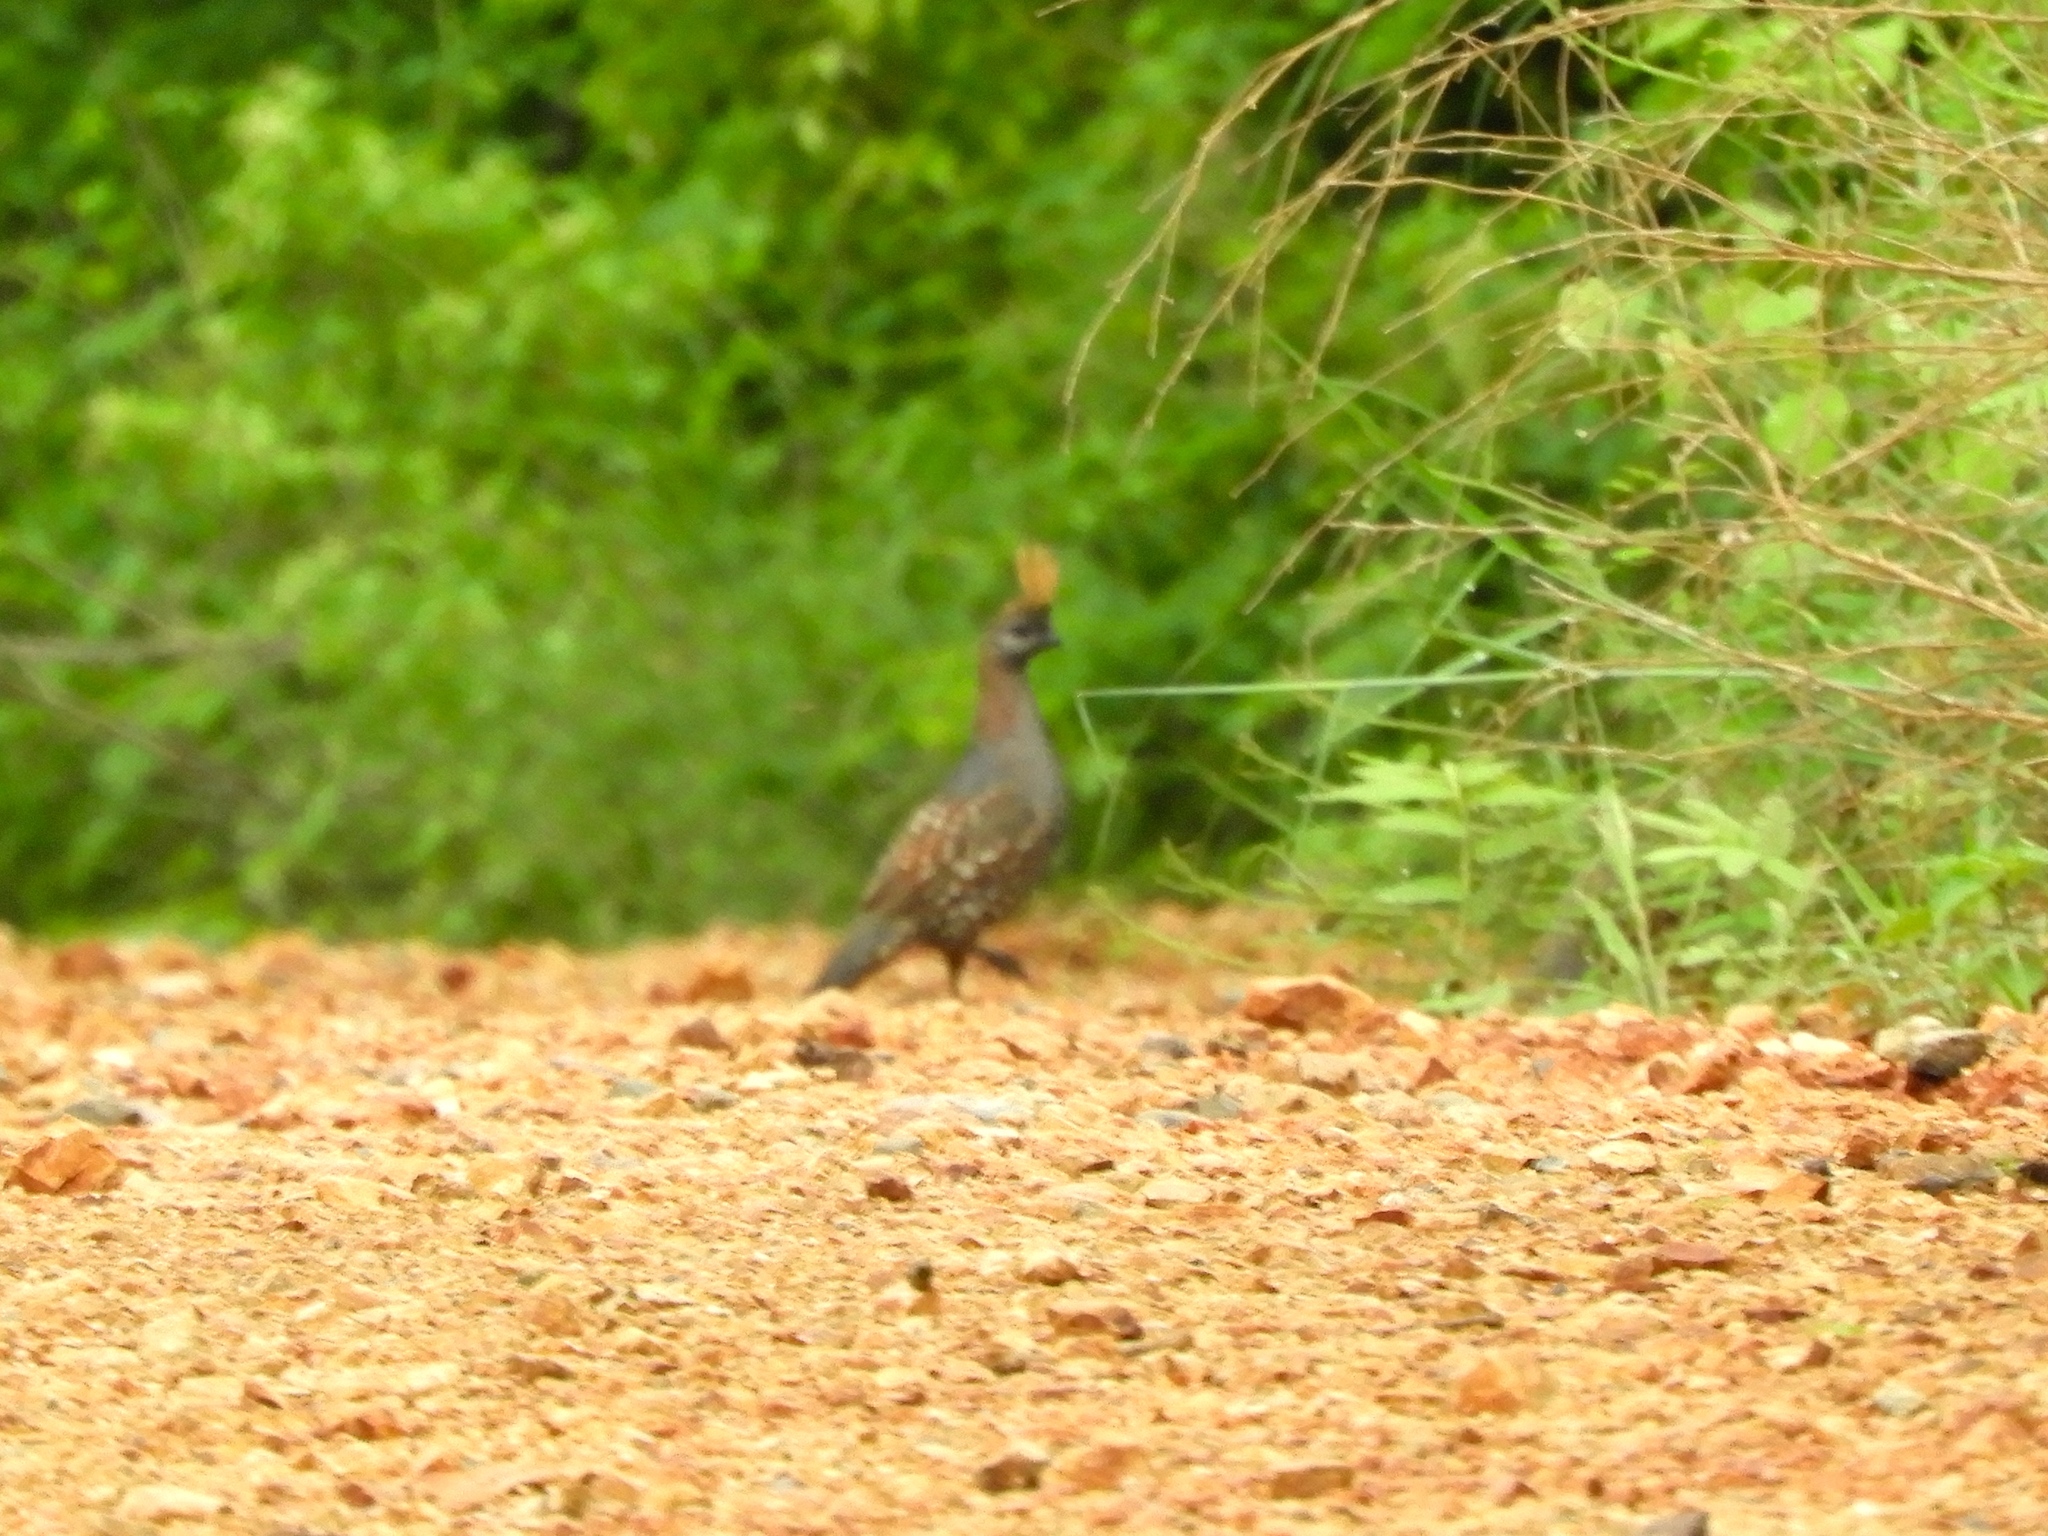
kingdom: Animalia
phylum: Chordata
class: Aves
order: Galliformes
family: Odontophoridae
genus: Callipepla
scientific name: Callipepla douglasii
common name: Elegant quail
